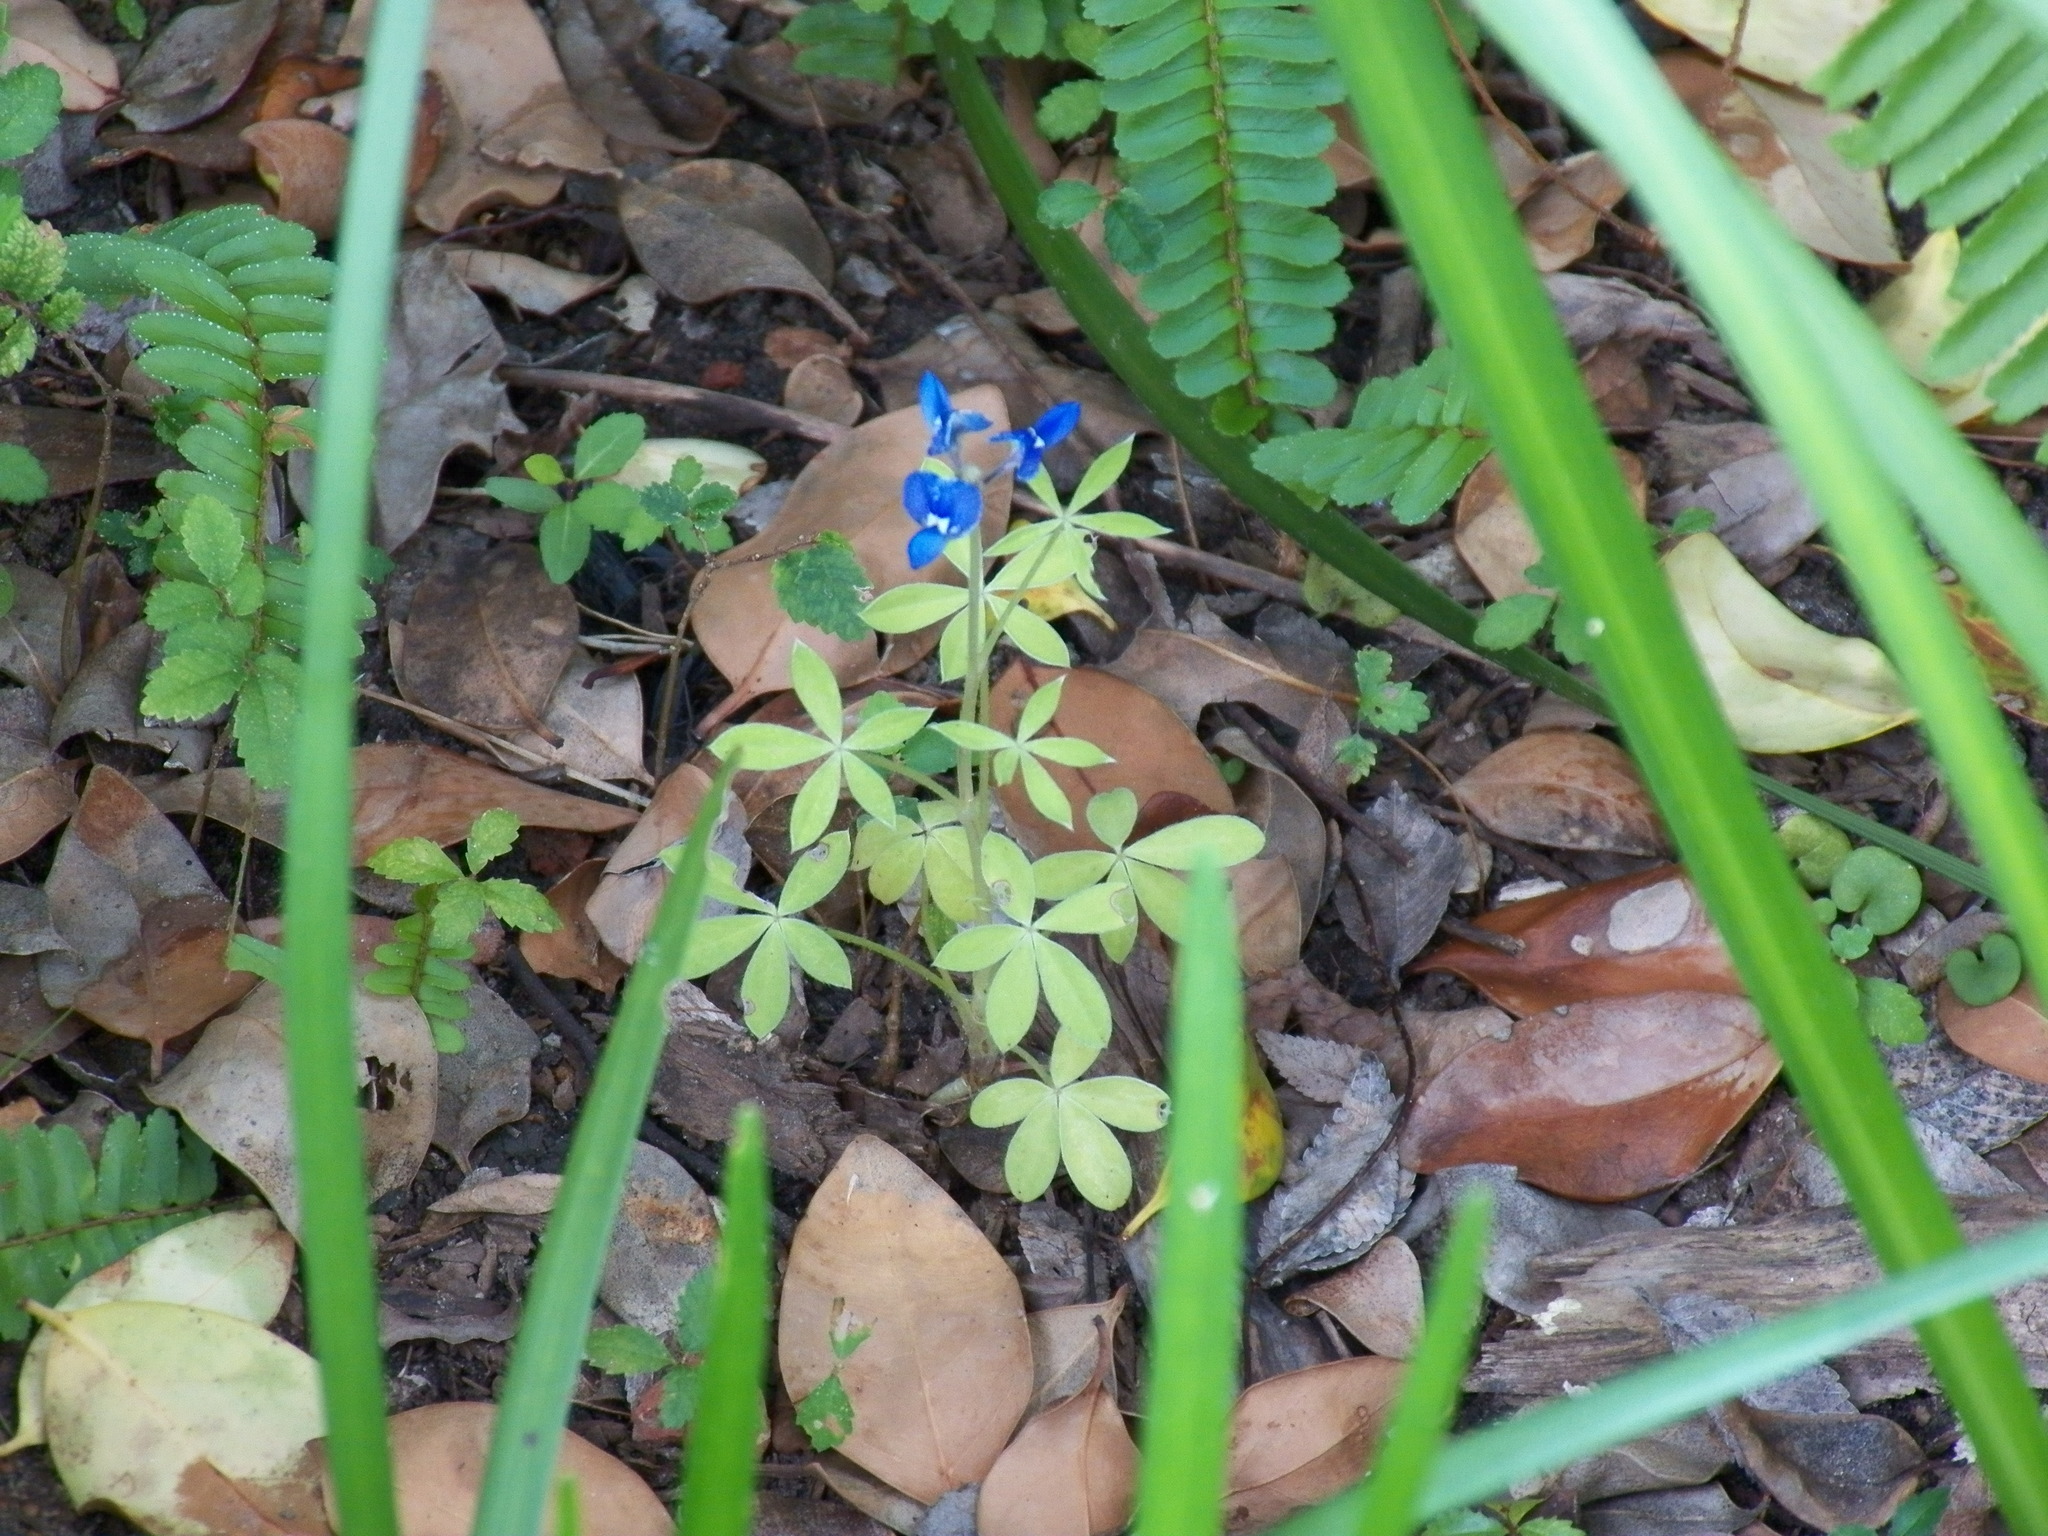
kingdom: Plantae
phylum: Tracheophyta
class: Magnoliopsida
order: Fabales
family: Fabaceae
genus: Lupinus
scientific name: Lupinus texensis
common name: Texas bluebonnet
